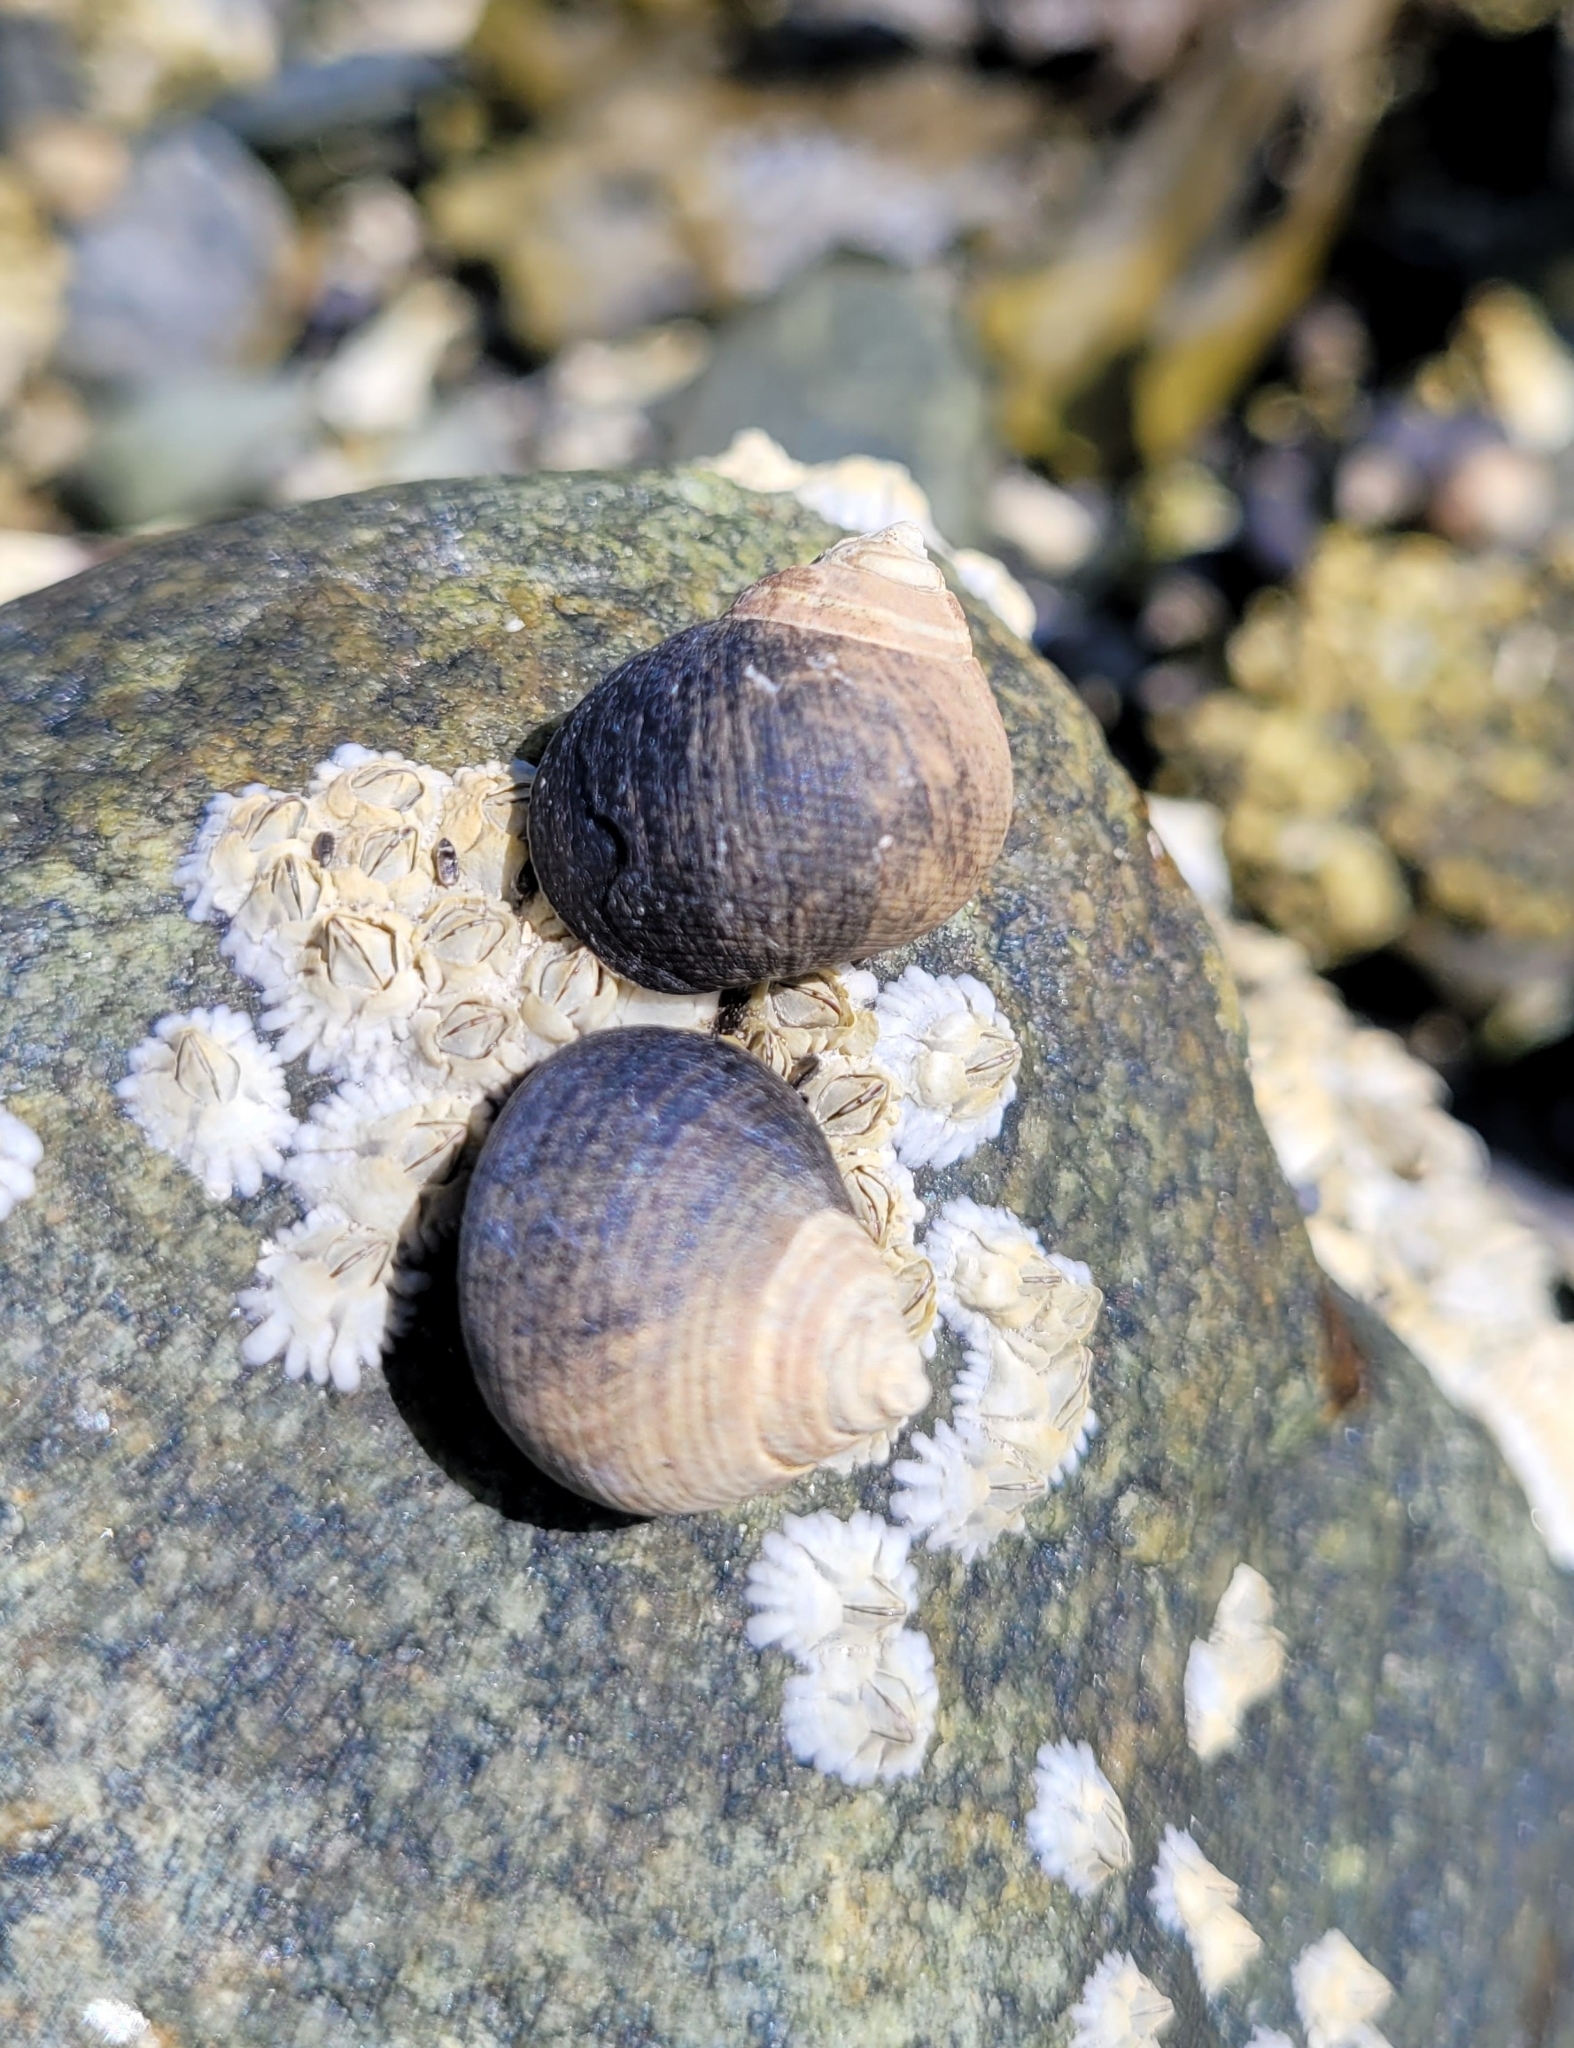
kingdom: Animalia
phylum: Mollusca
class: Gastropoda
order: Littorinimorpha
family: Littorinidae
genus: Littorina
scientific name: Littorina littorea
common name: Common periwinkle
